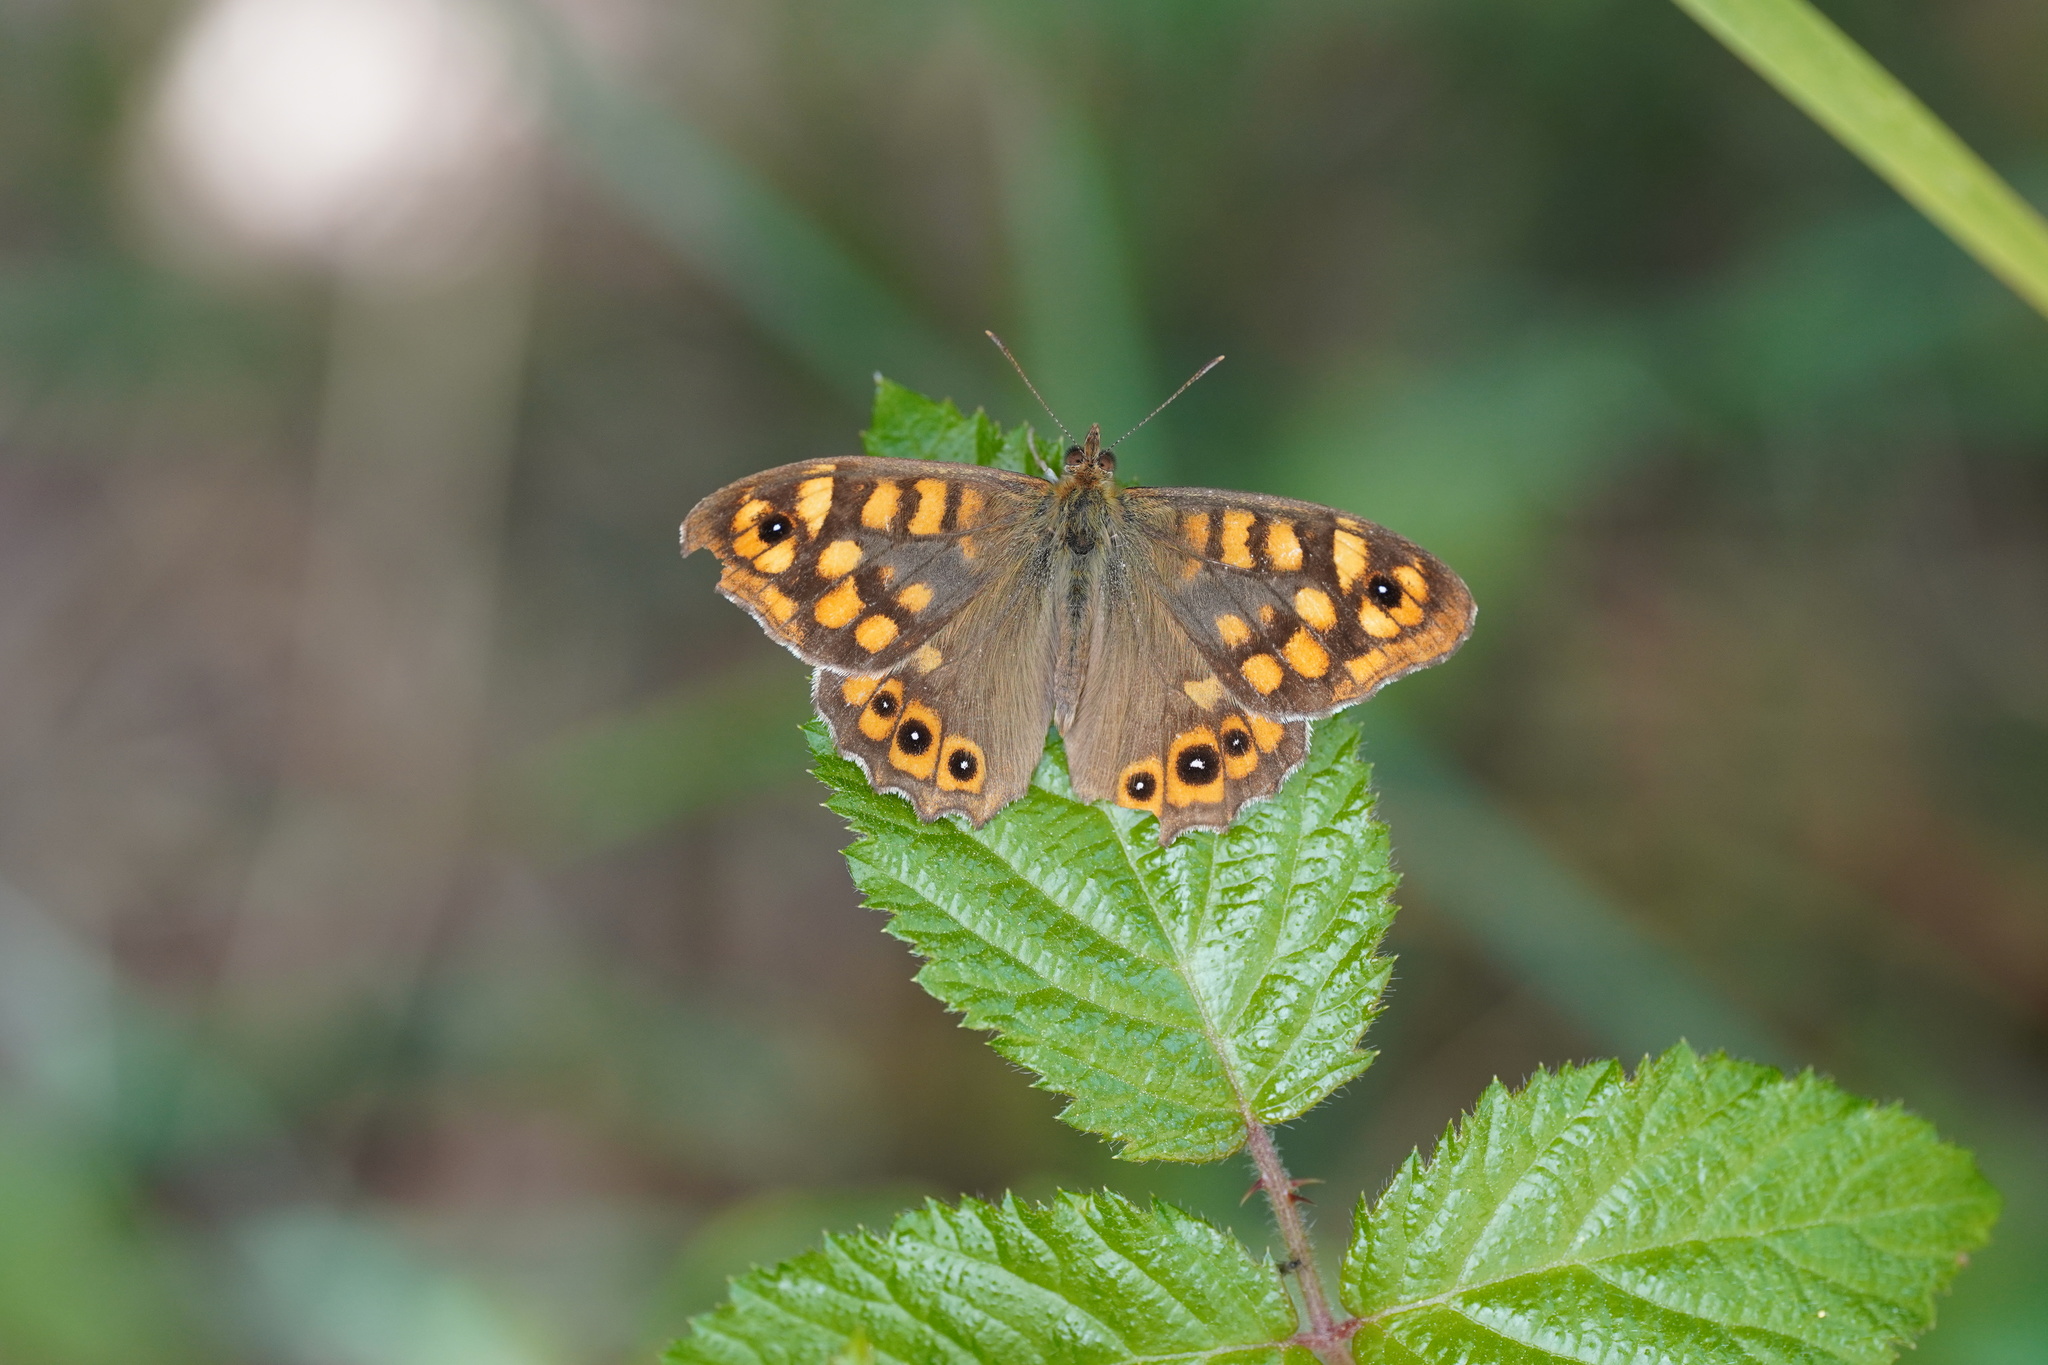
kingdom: Animalia
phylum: Arthropoda
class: Insecta
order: Lepidoptera
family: Nymphalidae
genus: Pararge
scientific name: Pararge aegeria
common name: Speckled wood
